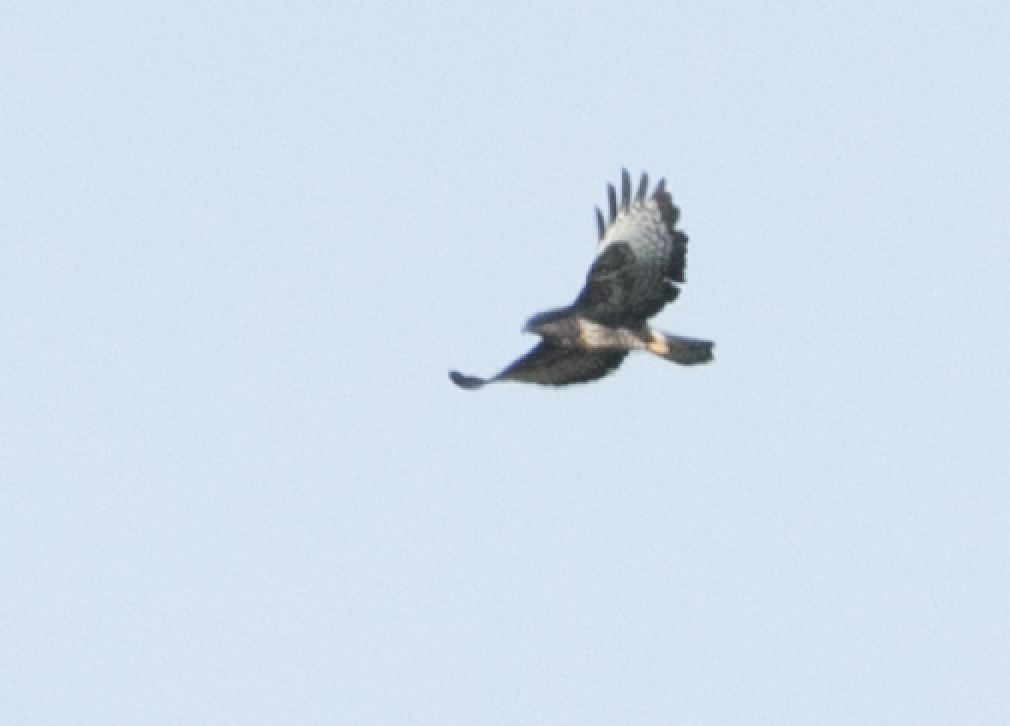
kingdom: Animalia
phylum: Chordata
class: Aves
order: Accipitriformes
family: Accipitridae
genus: Buteo
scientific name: Buteo buteo
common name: Common buzzard
